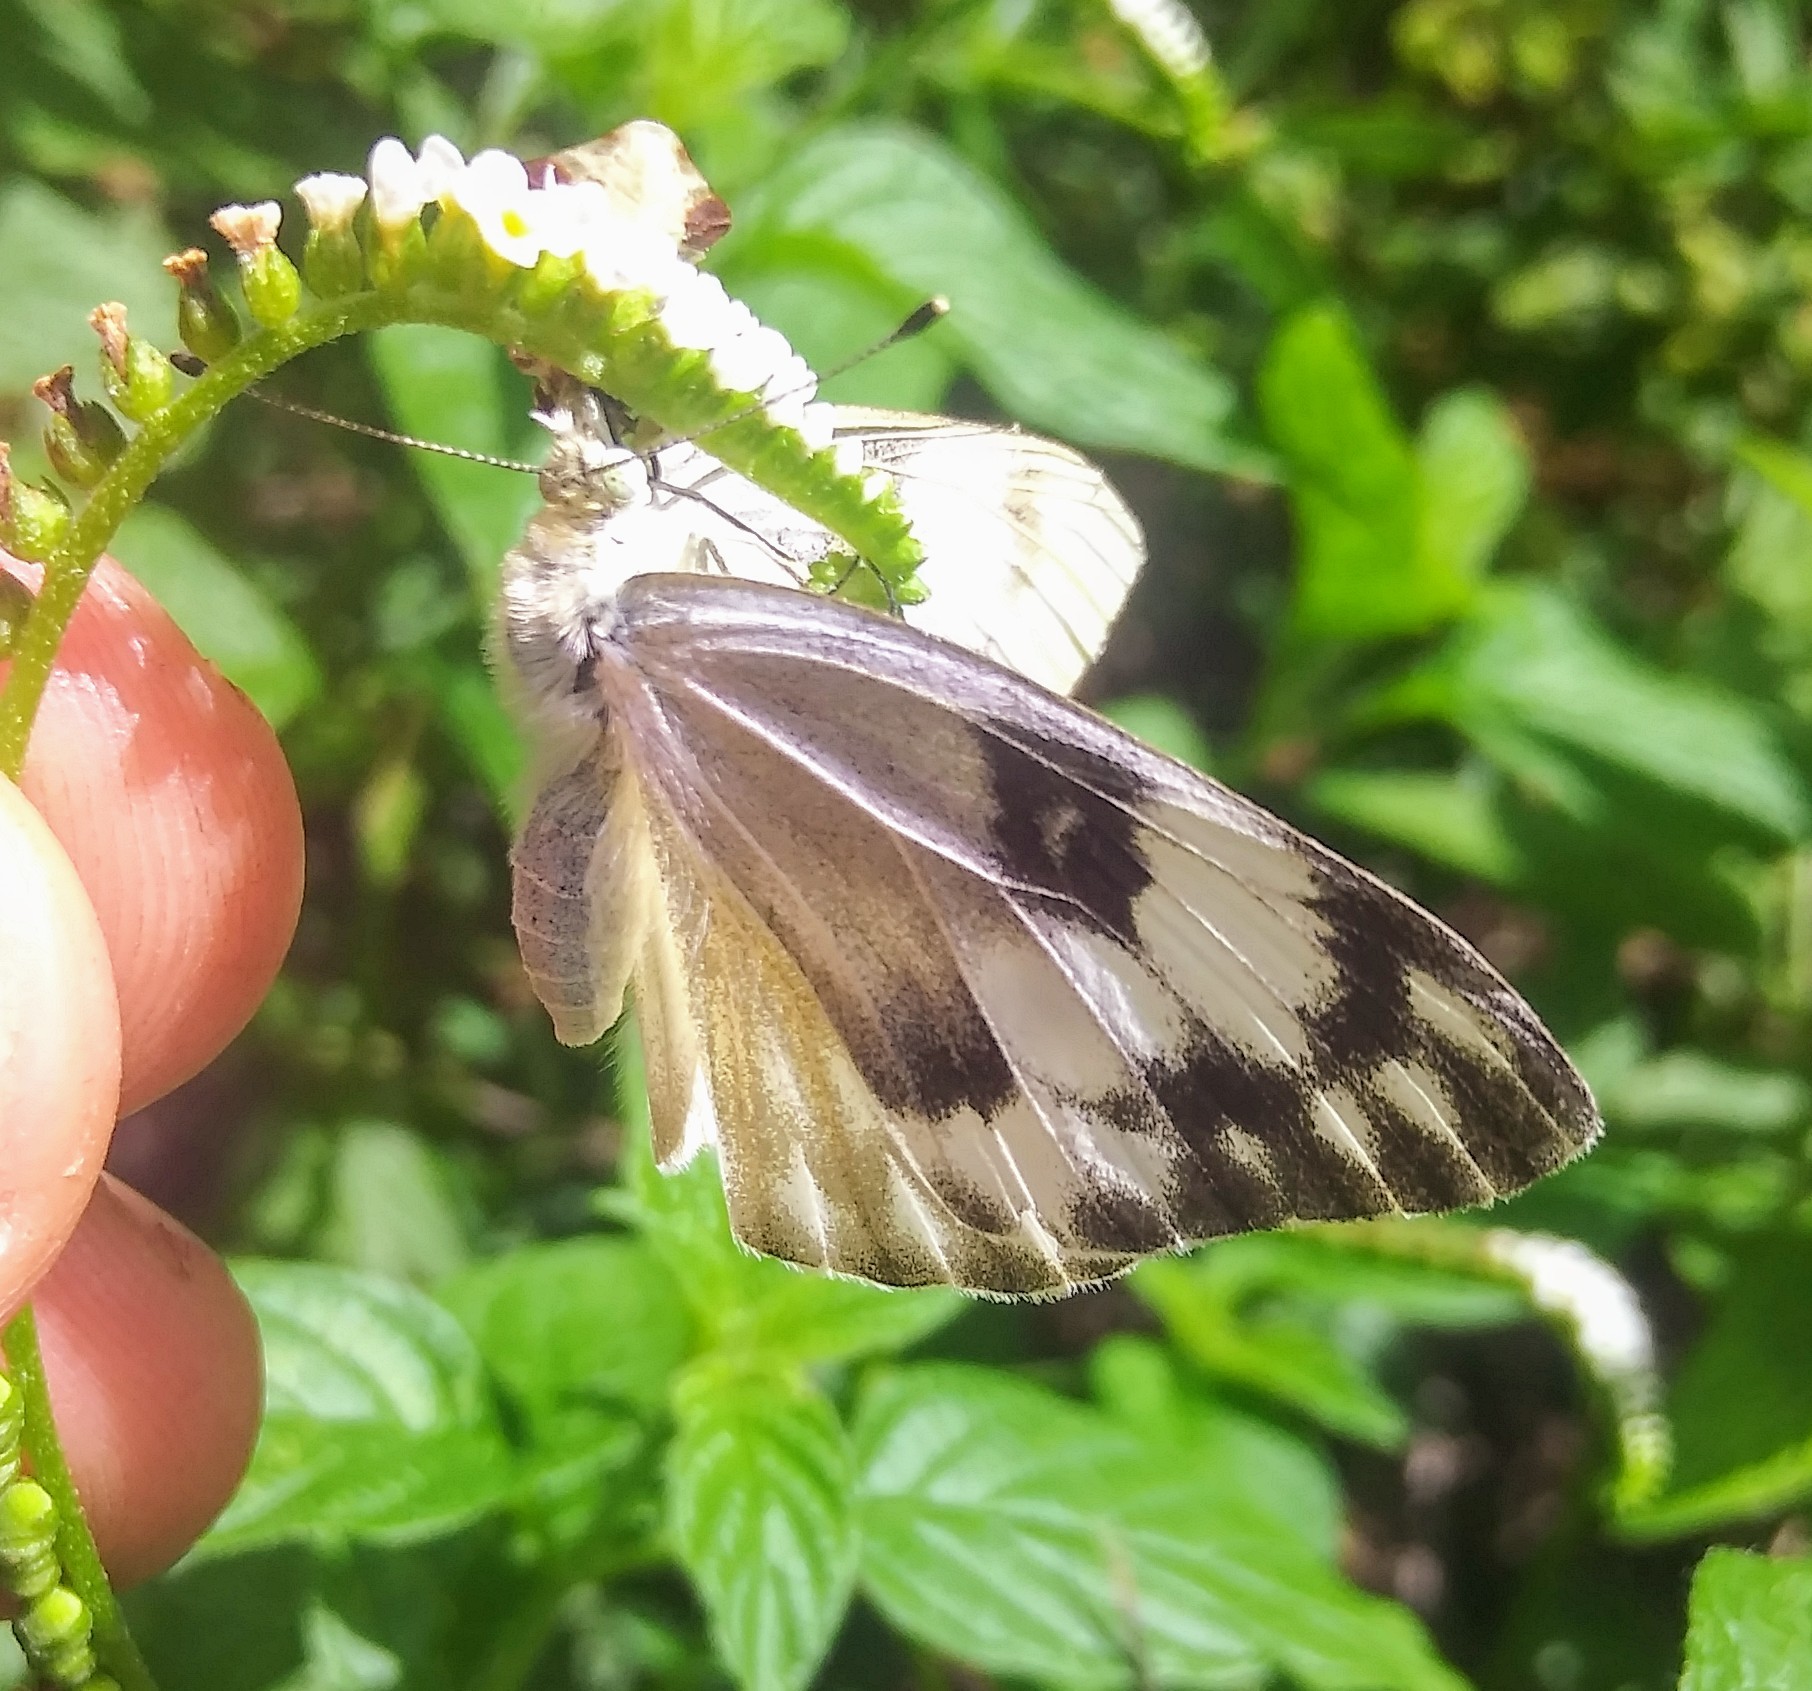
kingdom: Animalia
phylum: Arthropoda
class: Insecta
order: Lepidoptera
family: Pieridae
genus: Pontia
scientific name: Pontia protodice
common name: Checkered white
